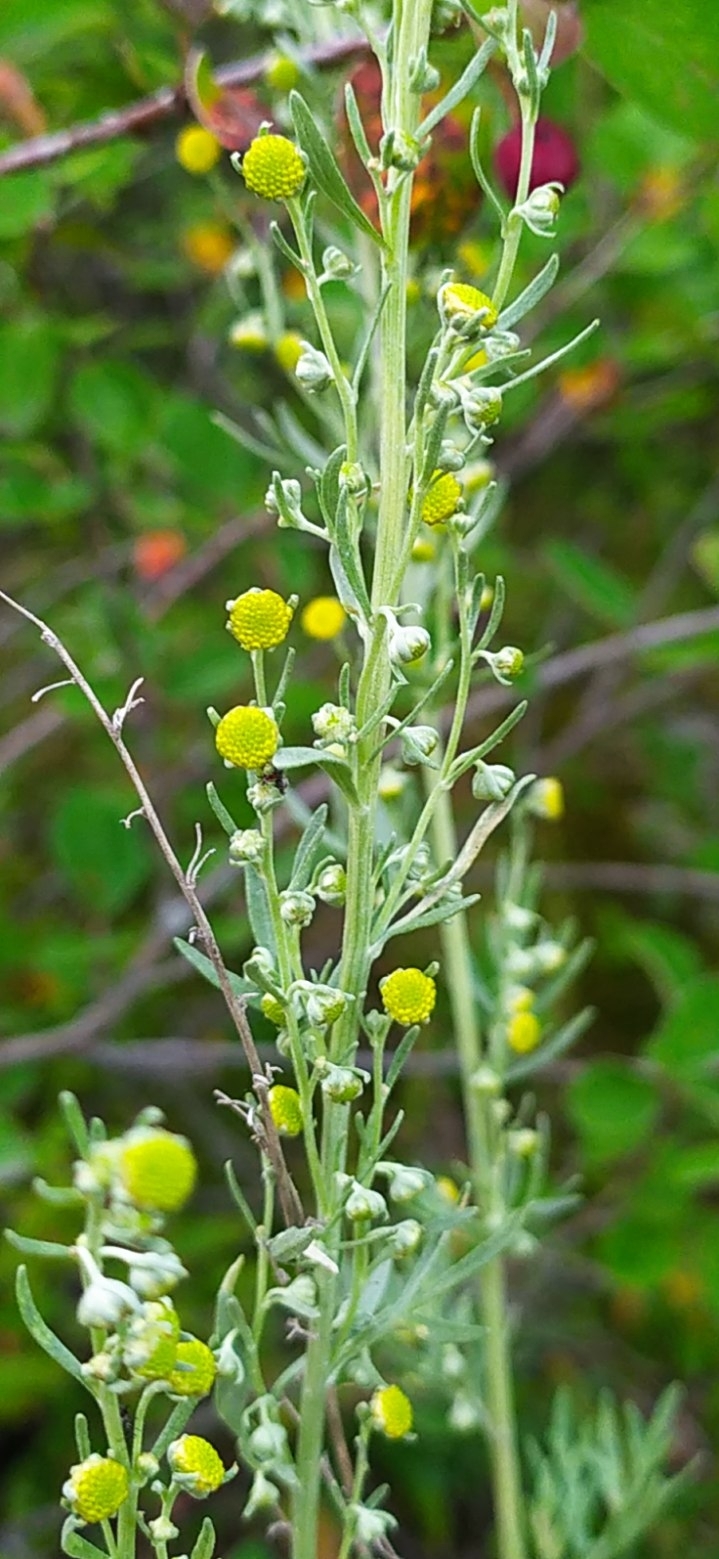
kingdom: Plantae
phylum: Tracheophyta
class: Magnoliopsida
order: Asterales
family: Asteraceae
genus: Artemisia
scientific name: Artemisia absinthium
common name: Wormwood
